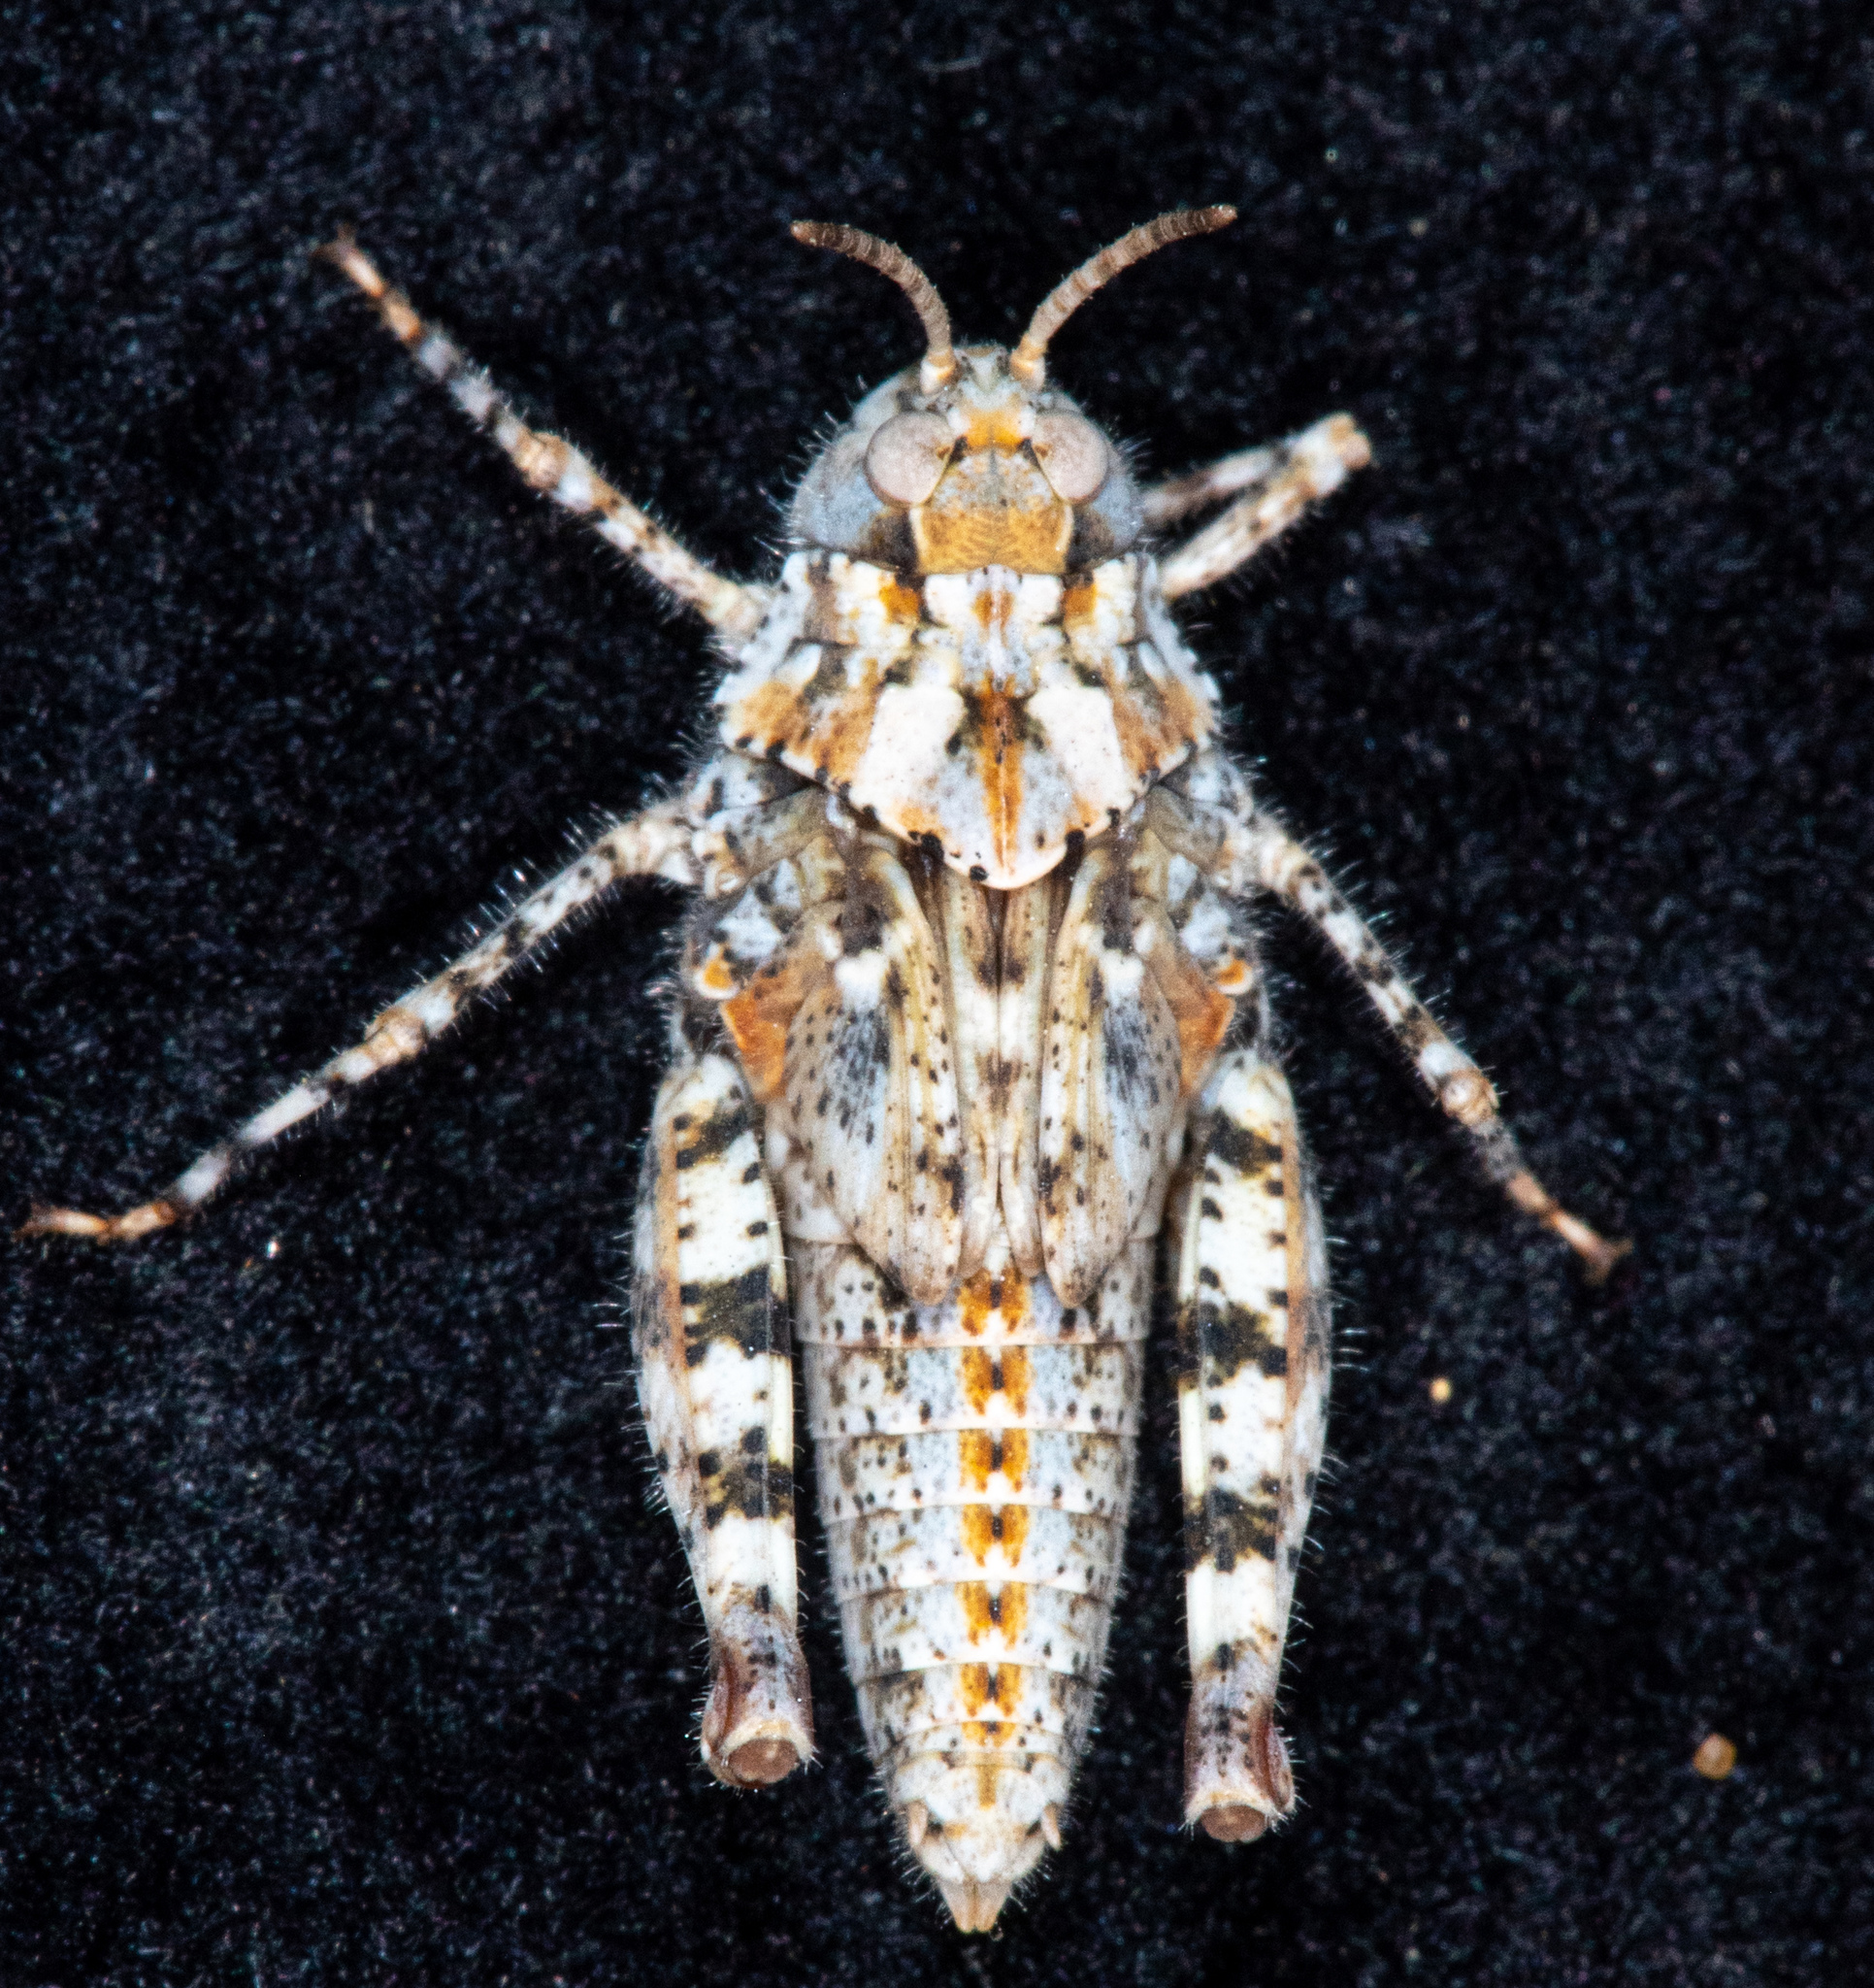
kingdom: Animalia
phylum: Arthropoda
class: Insecta
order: Orthoptera
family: Acrididae
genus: Microtes
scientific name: Microtes occidentalis
